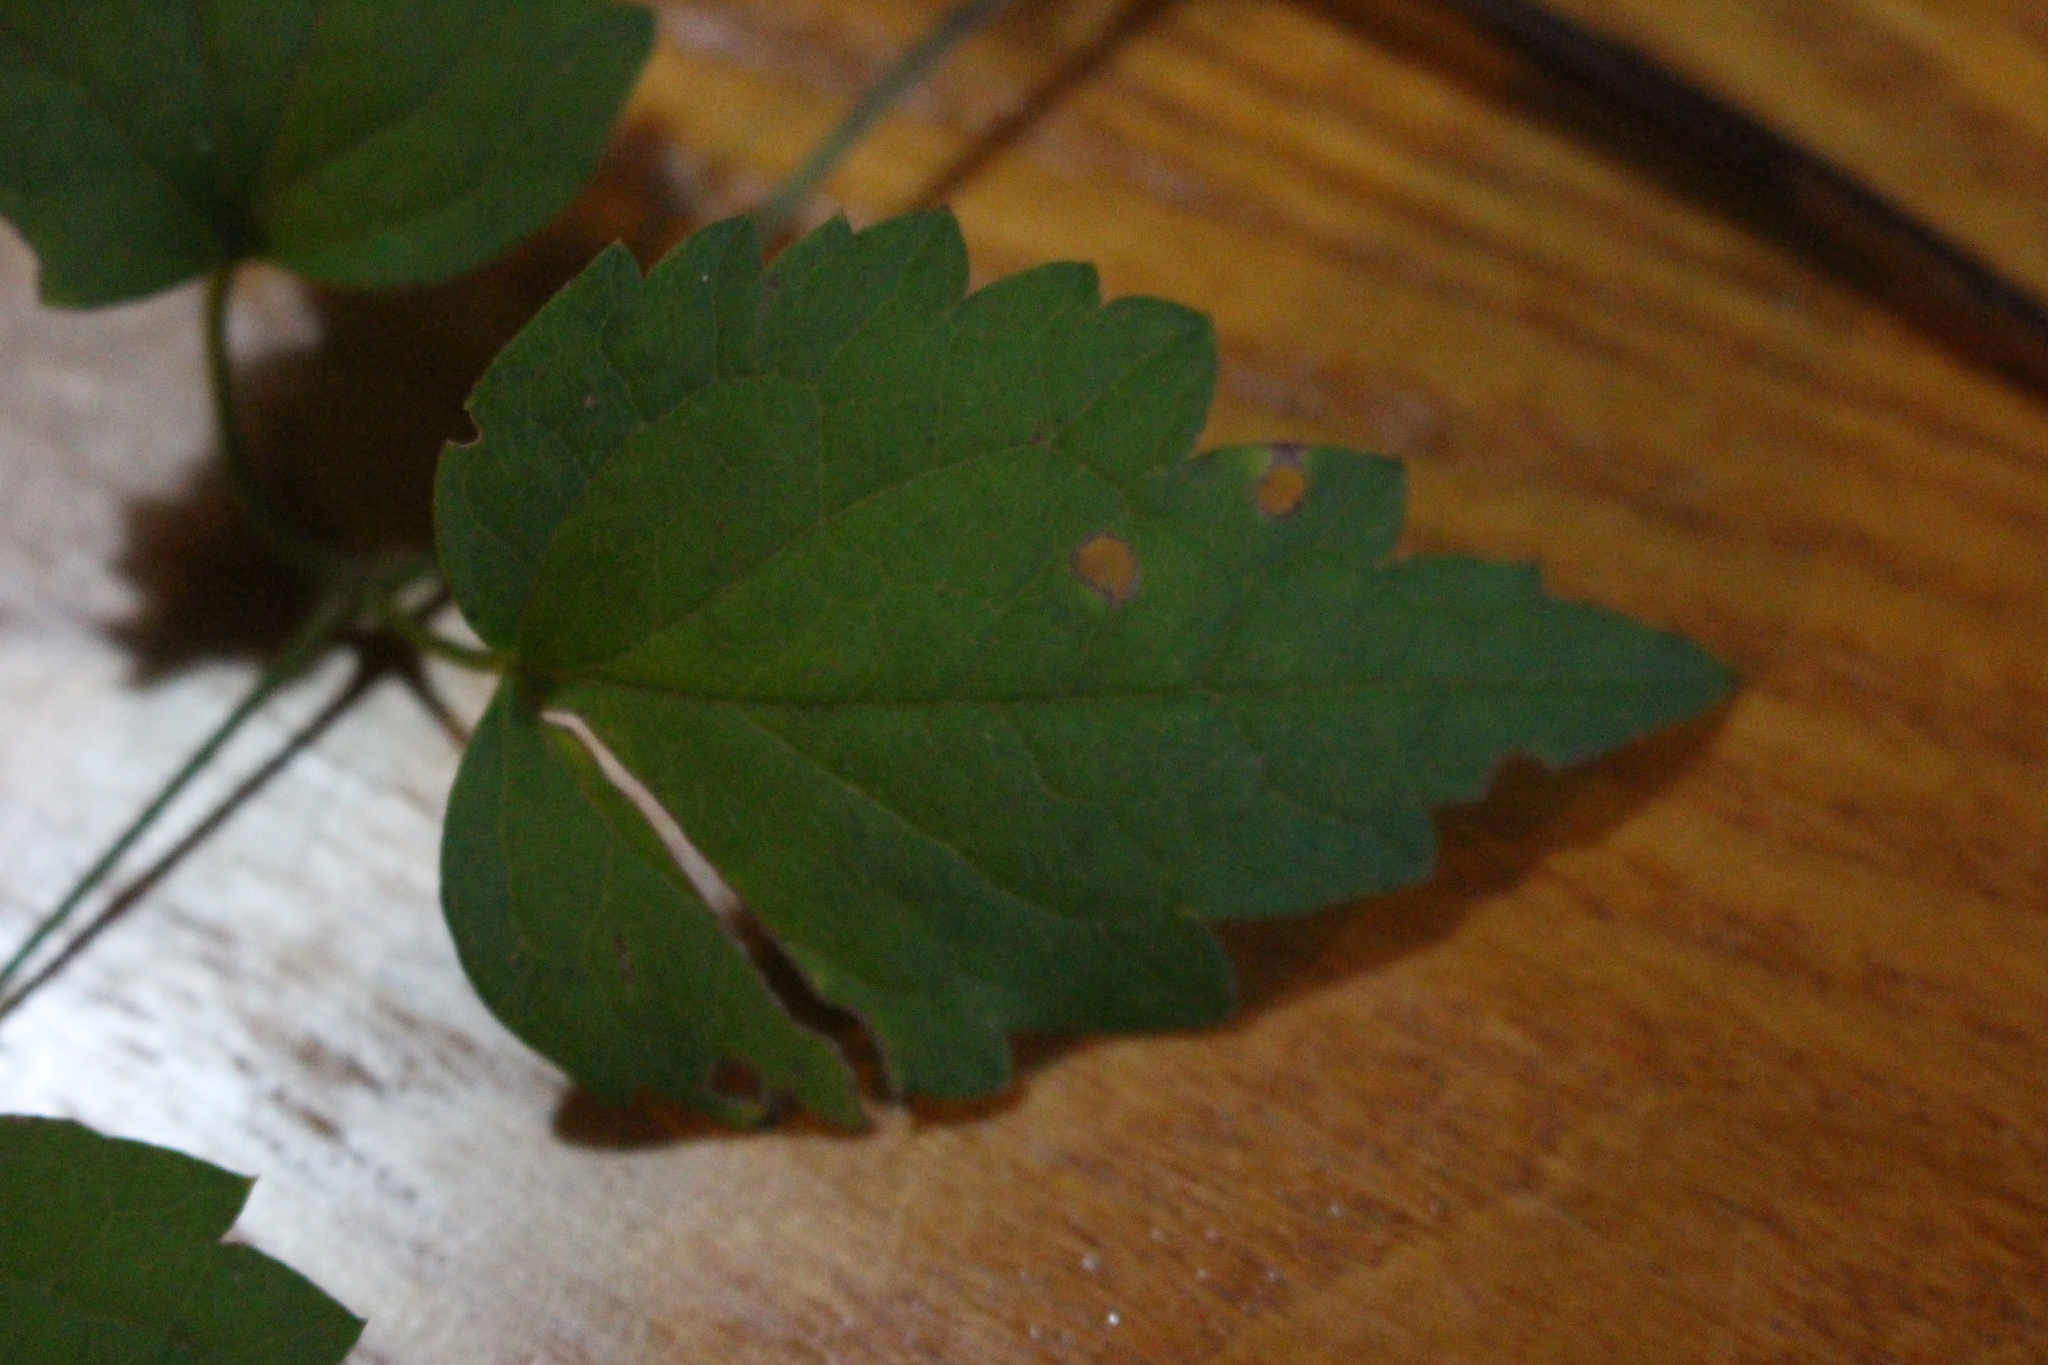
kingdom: Plantae
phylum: Tracheophyta
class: Magnoliopsida
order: Ranunculales
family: Ranunculaceae
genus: Clematis
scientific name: Clematis vitalba
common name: Evergreen clematis
